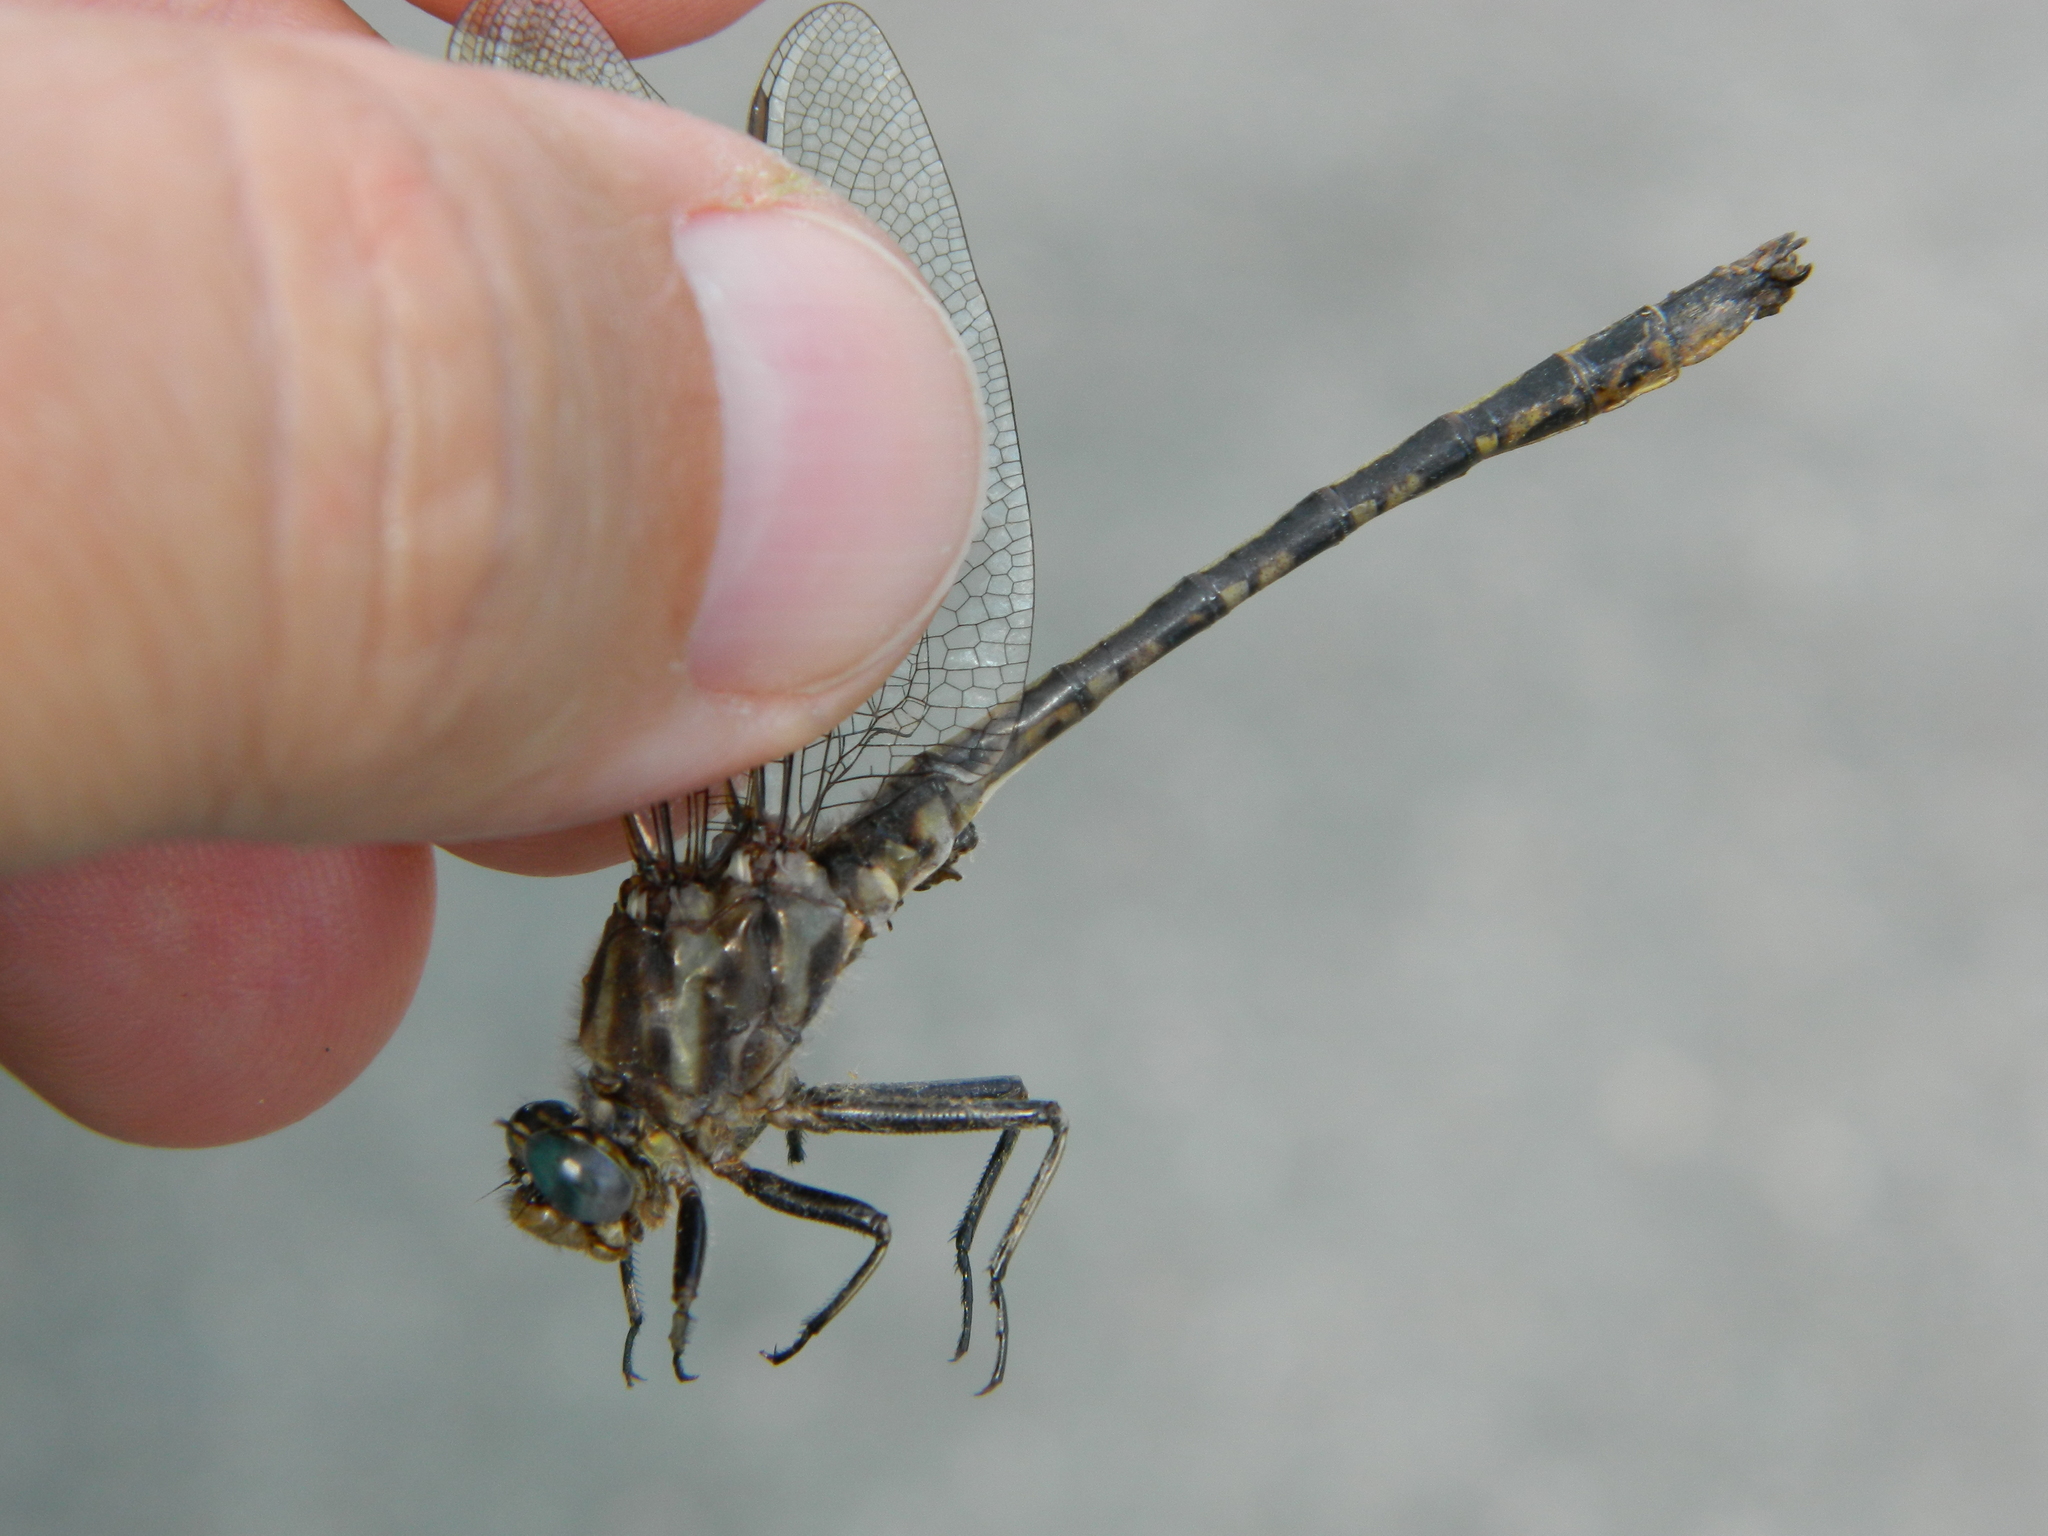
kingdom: Animalia
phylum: Arthropoda
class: Insecta
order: Odonata
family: Gomphidae
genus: Phanogomphus
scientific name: Phanogomphus spicatus
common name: Dusky clubtail
